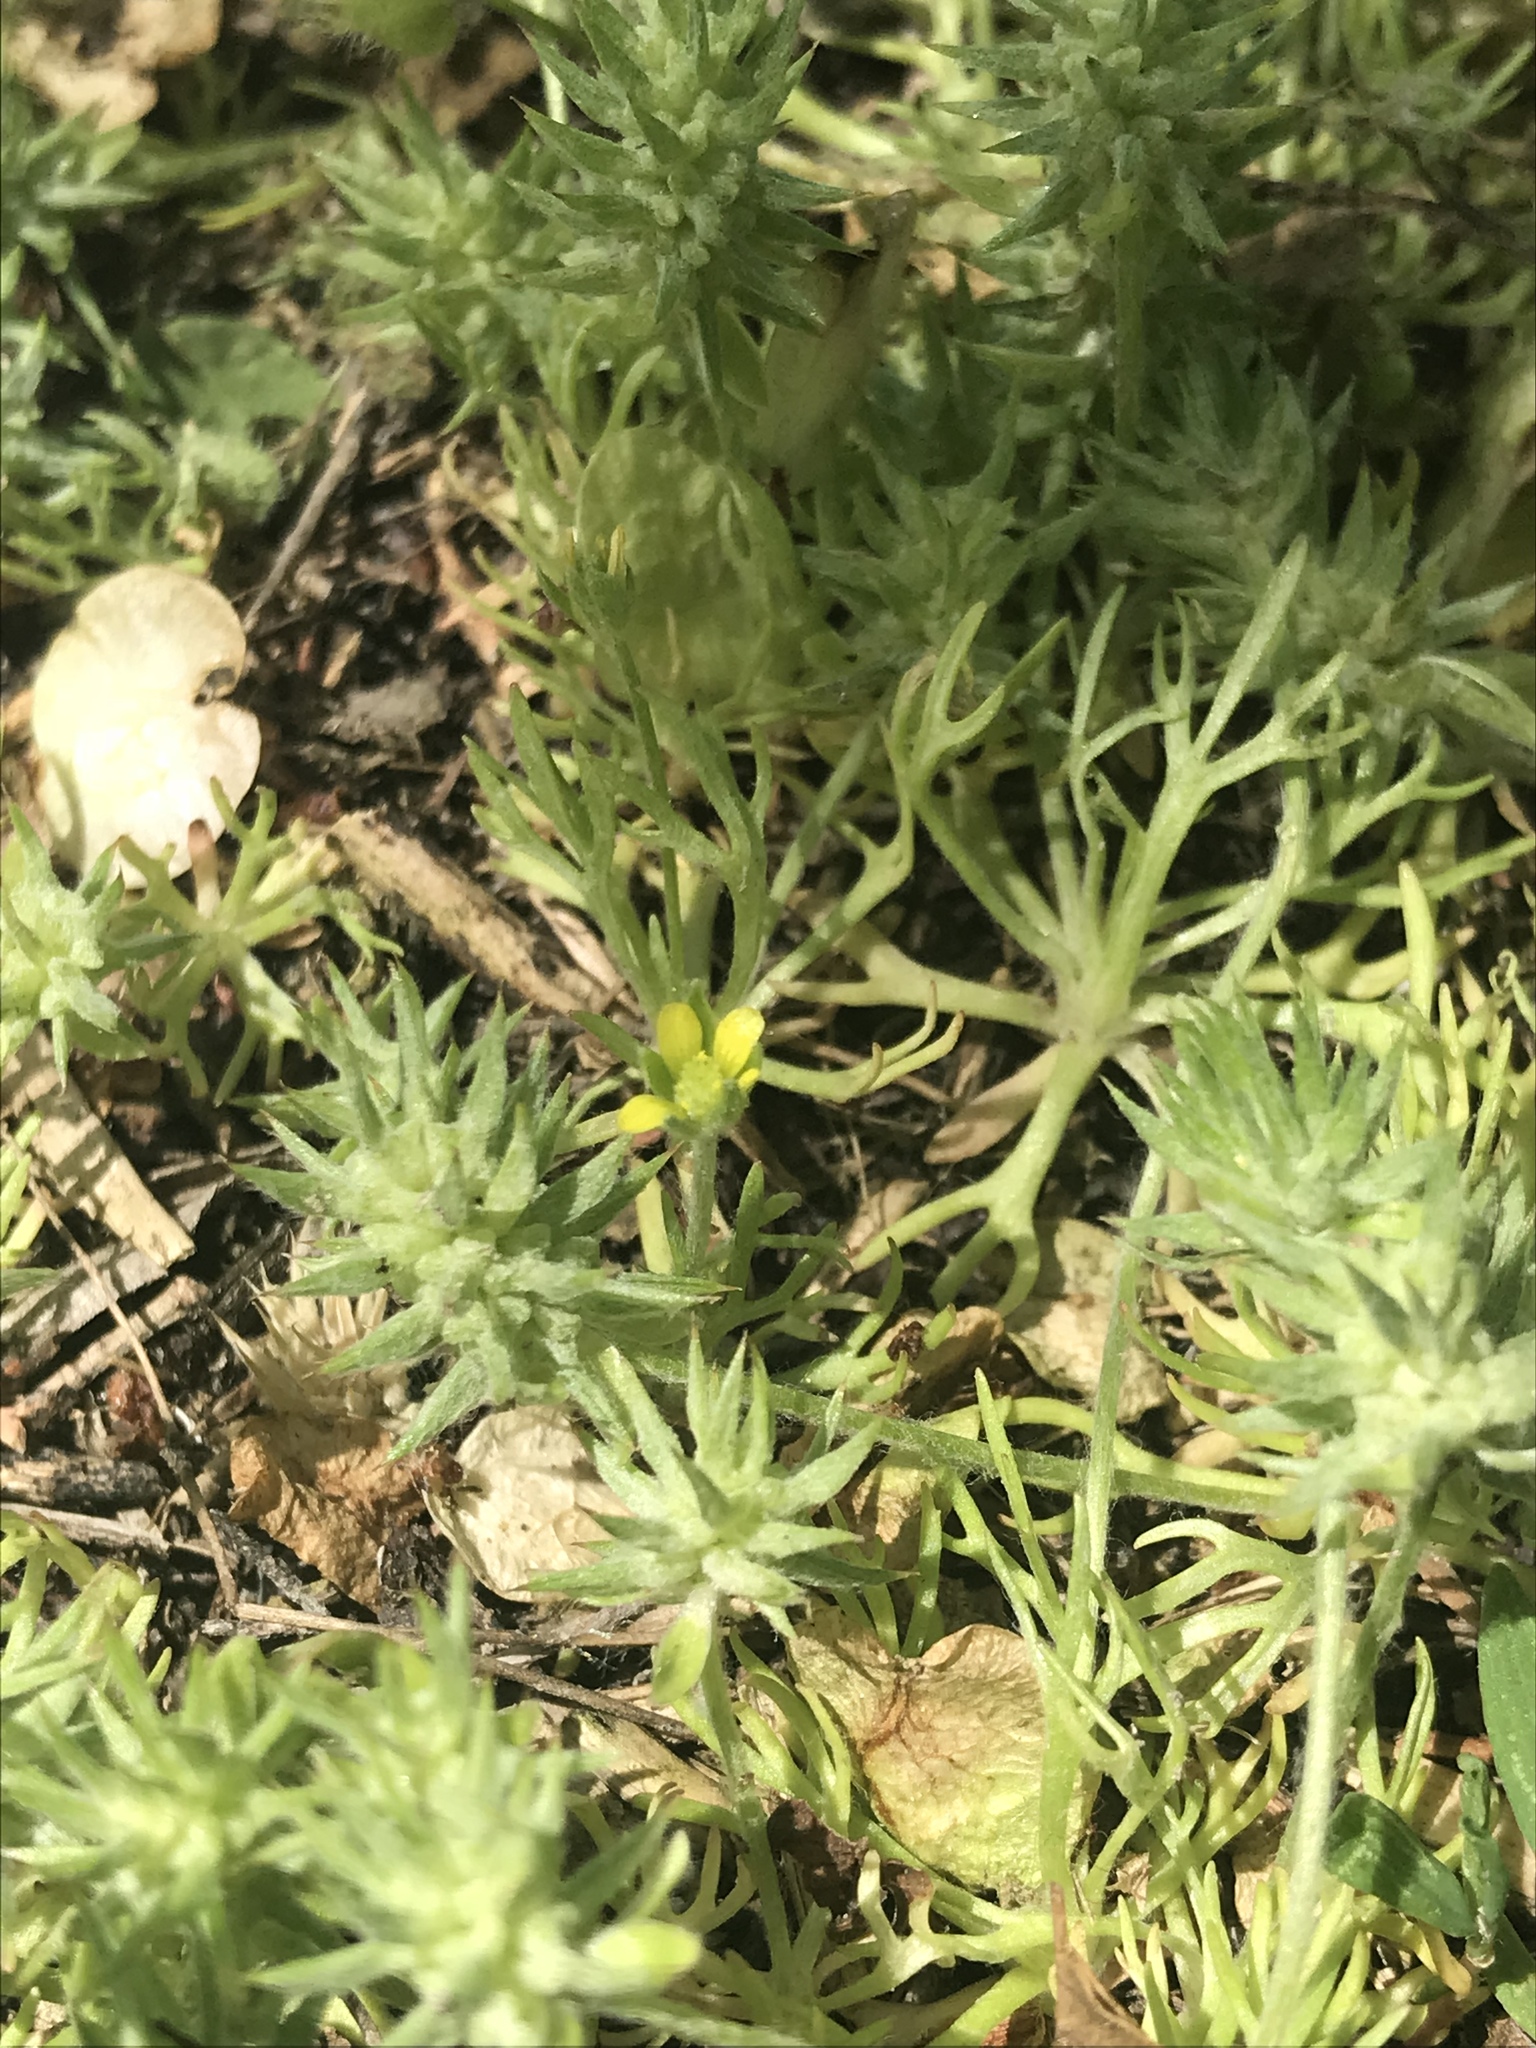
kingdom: Plantae
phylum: Tracheophyta
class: Magnoliopsida
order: Ranunculales
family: Ranunculaceae
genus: Ceratocephala
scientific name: Ceratocephala orthoceras
